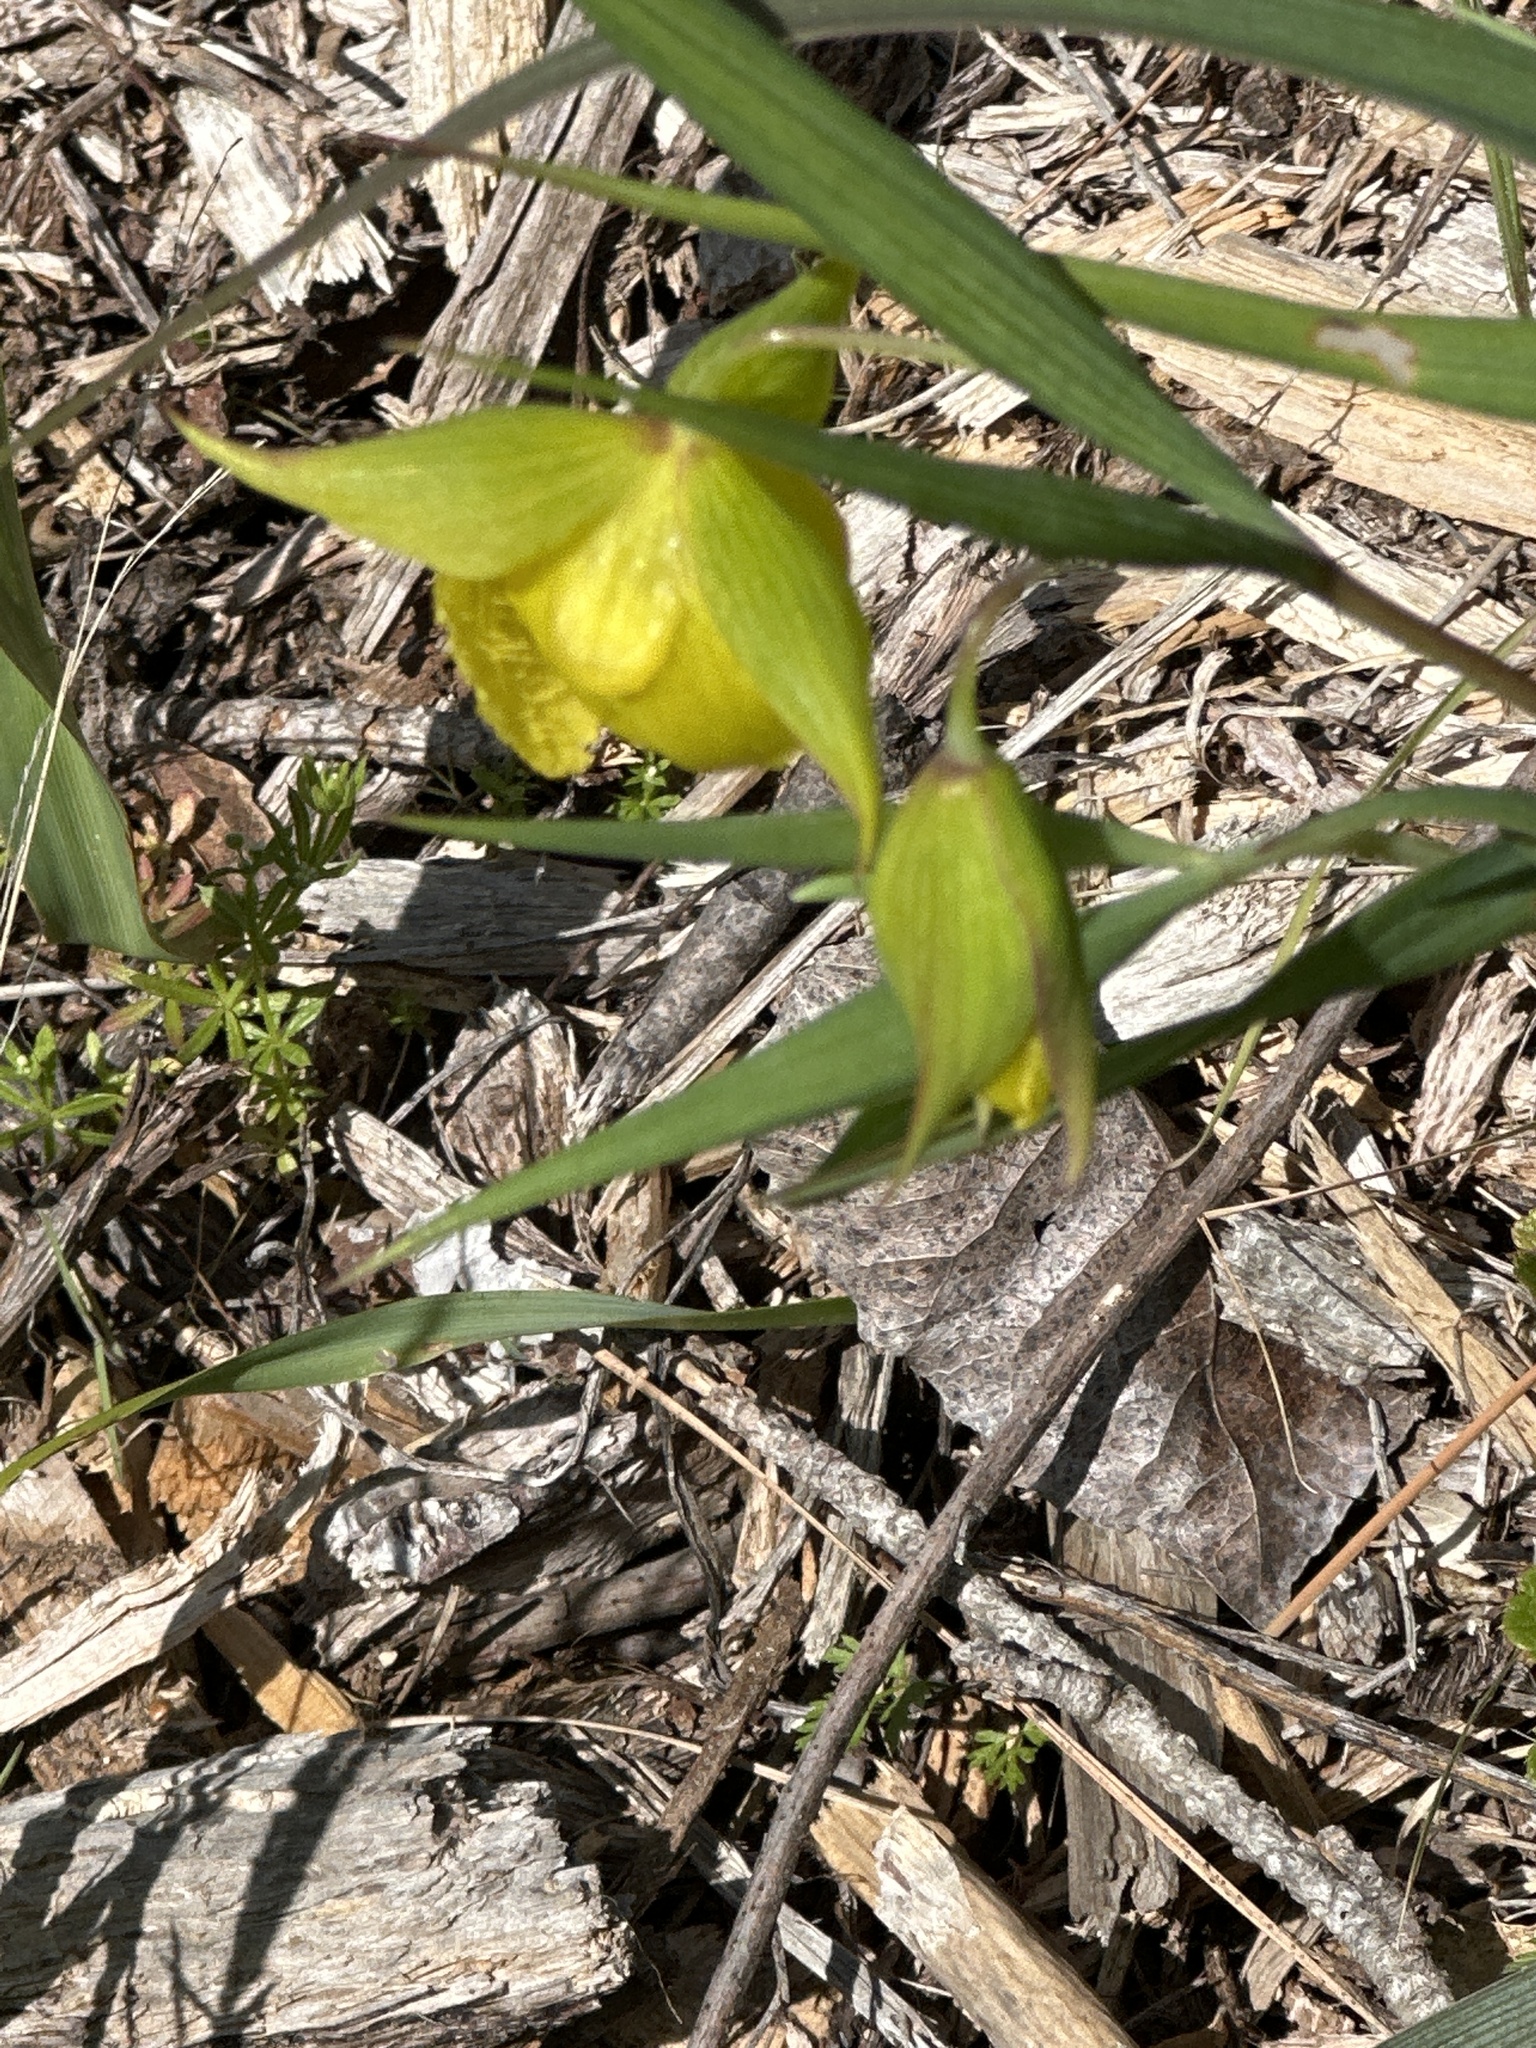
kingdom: Plantae
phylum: Tracheophyta
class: Liliopsida
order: Liliales
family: Liliaceae
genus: Calochortus
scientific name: Calochortus pulchellus
